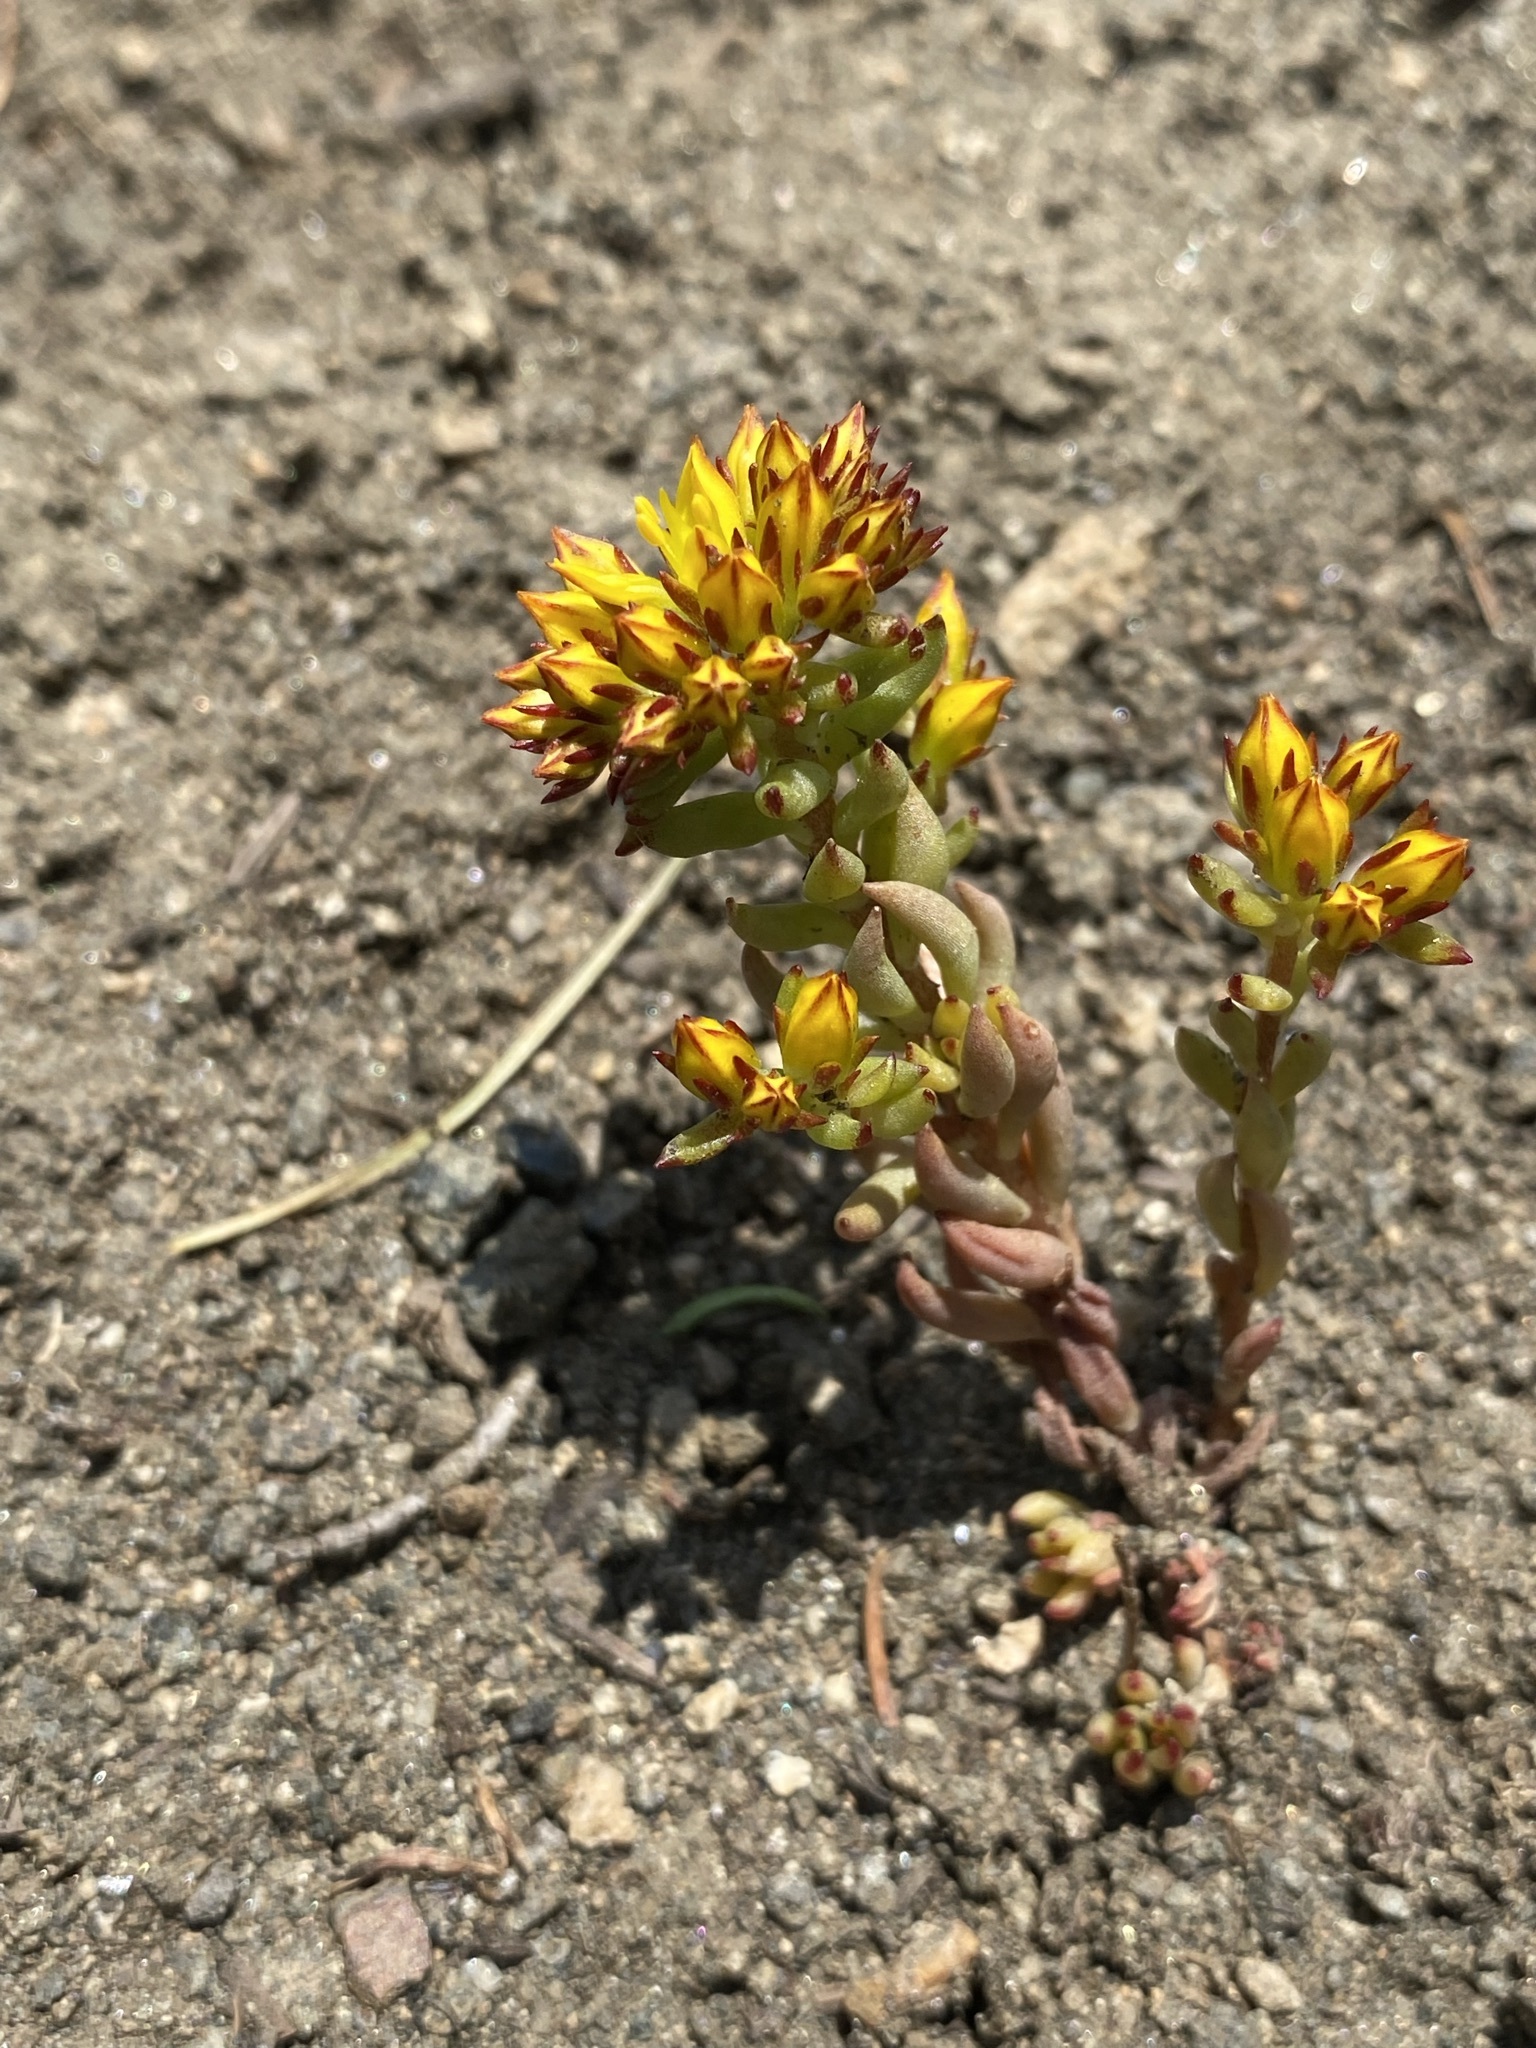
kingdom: Plantae
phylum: Tracheophyta
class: Magnoliopsida
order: Saxifragales
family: Crassulaceae
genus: Sedum
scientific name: Sedum lanceolatum
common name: Common stonecrop
